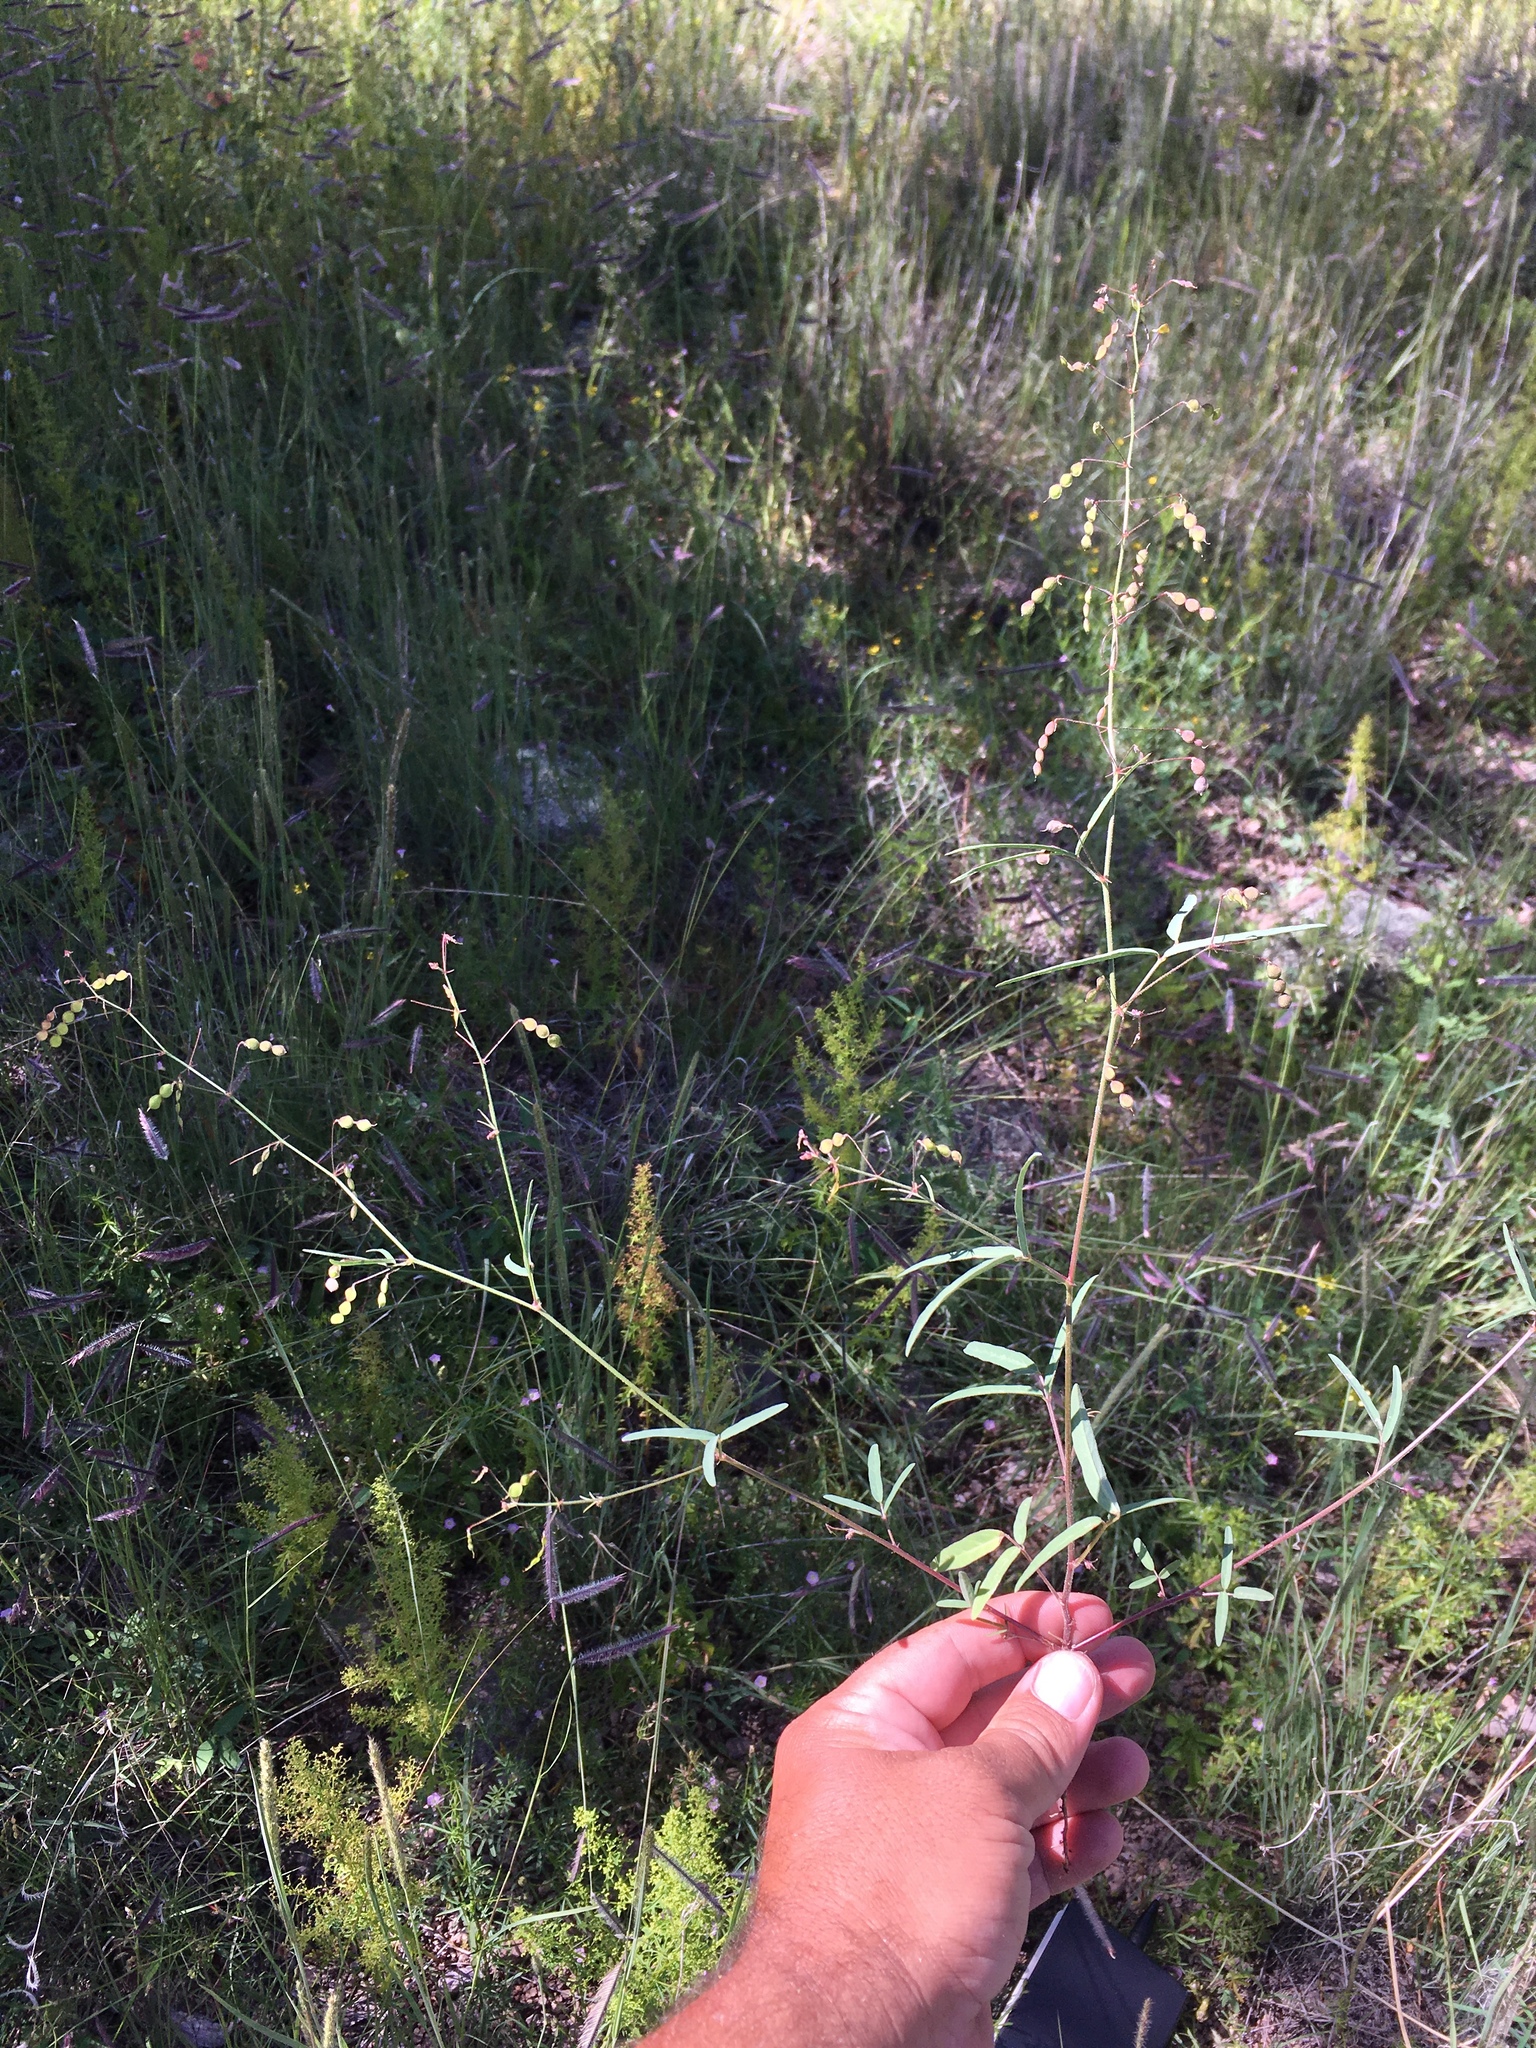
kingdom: Plantae
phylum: Tracheophyta
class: Magnoliopsida
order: Fabales
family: Fabaceae
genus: Desmodium
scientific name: Desmodium rosei
